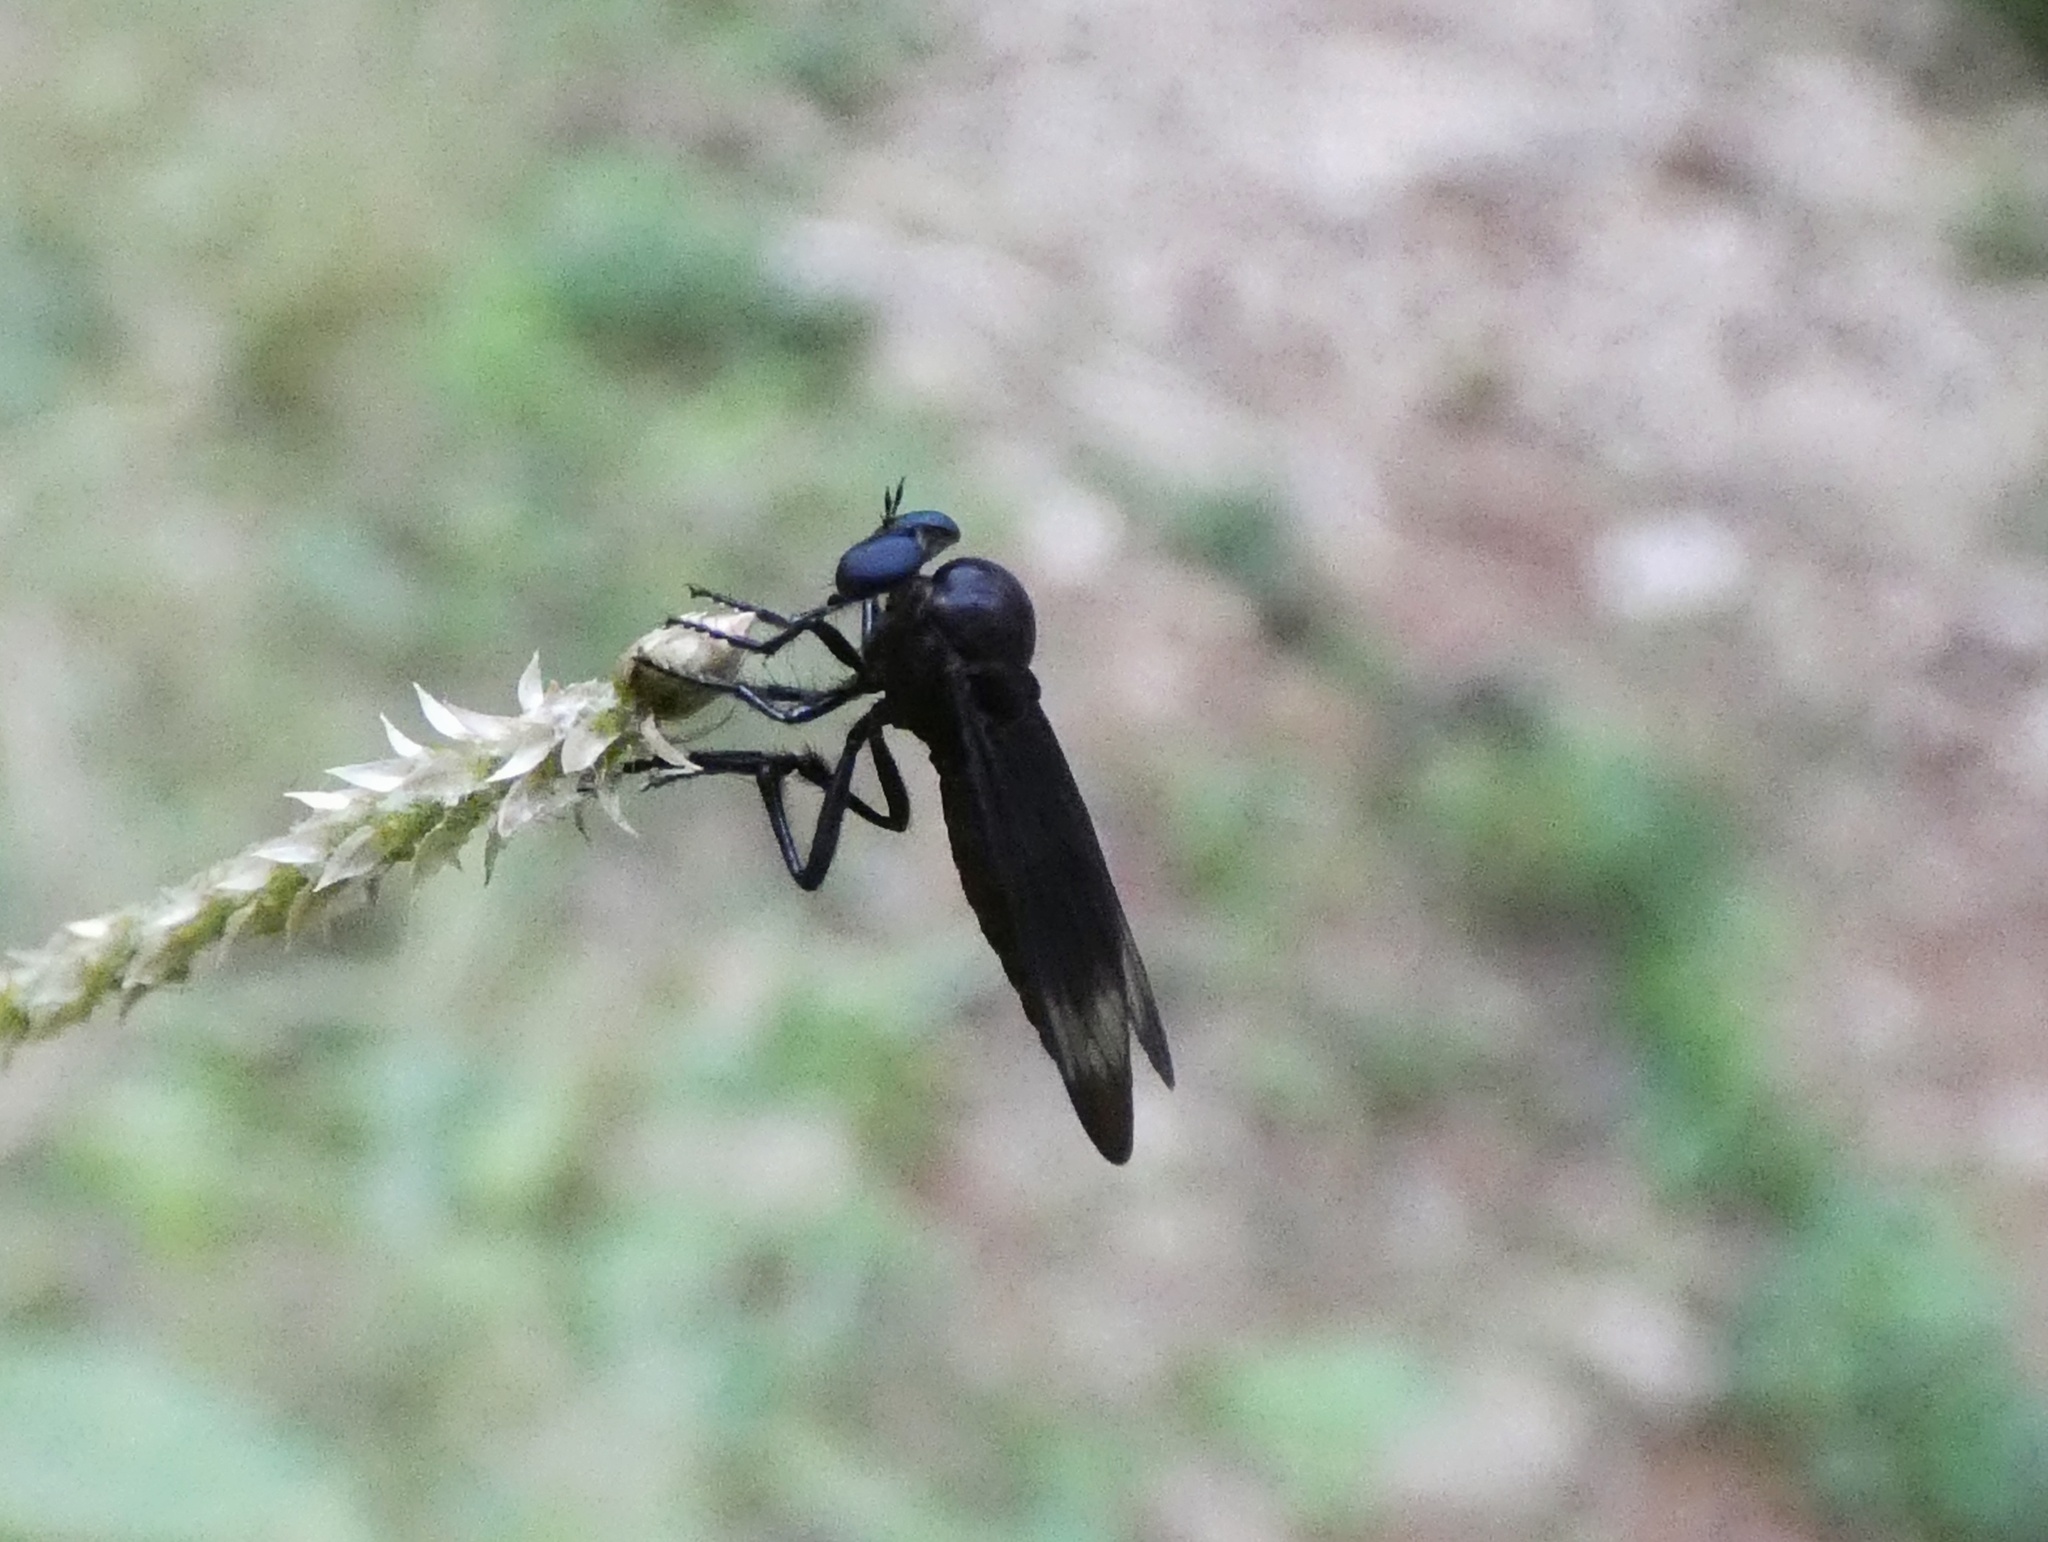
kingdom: Animalia
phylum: Arthropoda
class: Insecta
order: Diptera
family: Asilidae
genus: Holcocephala
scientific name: Holcocephala analis
